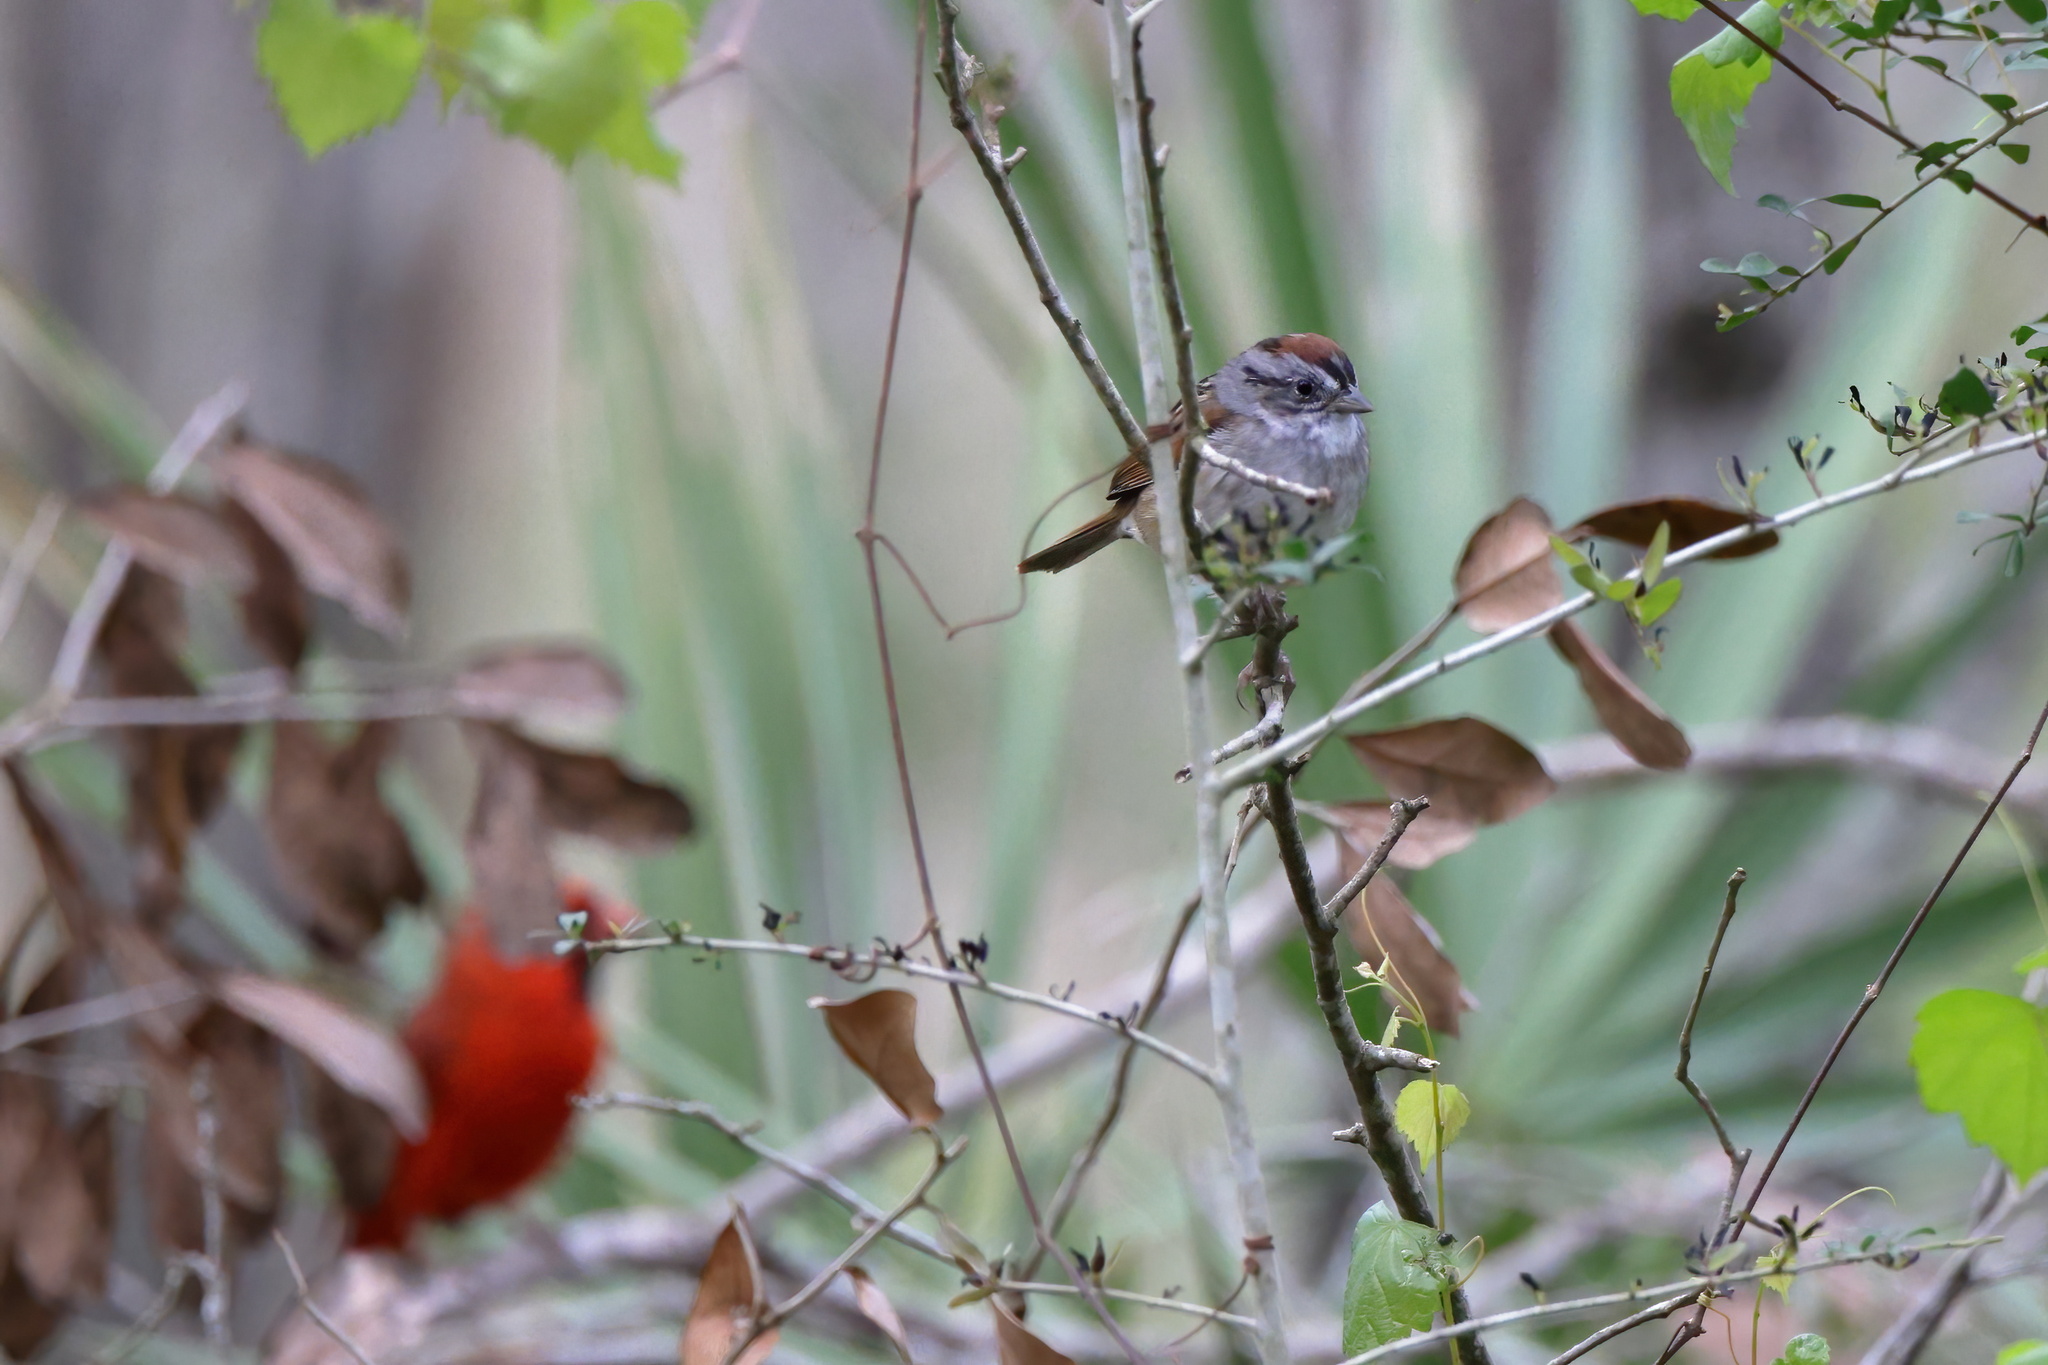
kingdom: Animalia
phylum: Chordata
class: Aves
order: Passeriformes
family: Passerellidae
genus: Melospiza
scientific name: Melospiza georgiana
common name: Swamp sparrow
